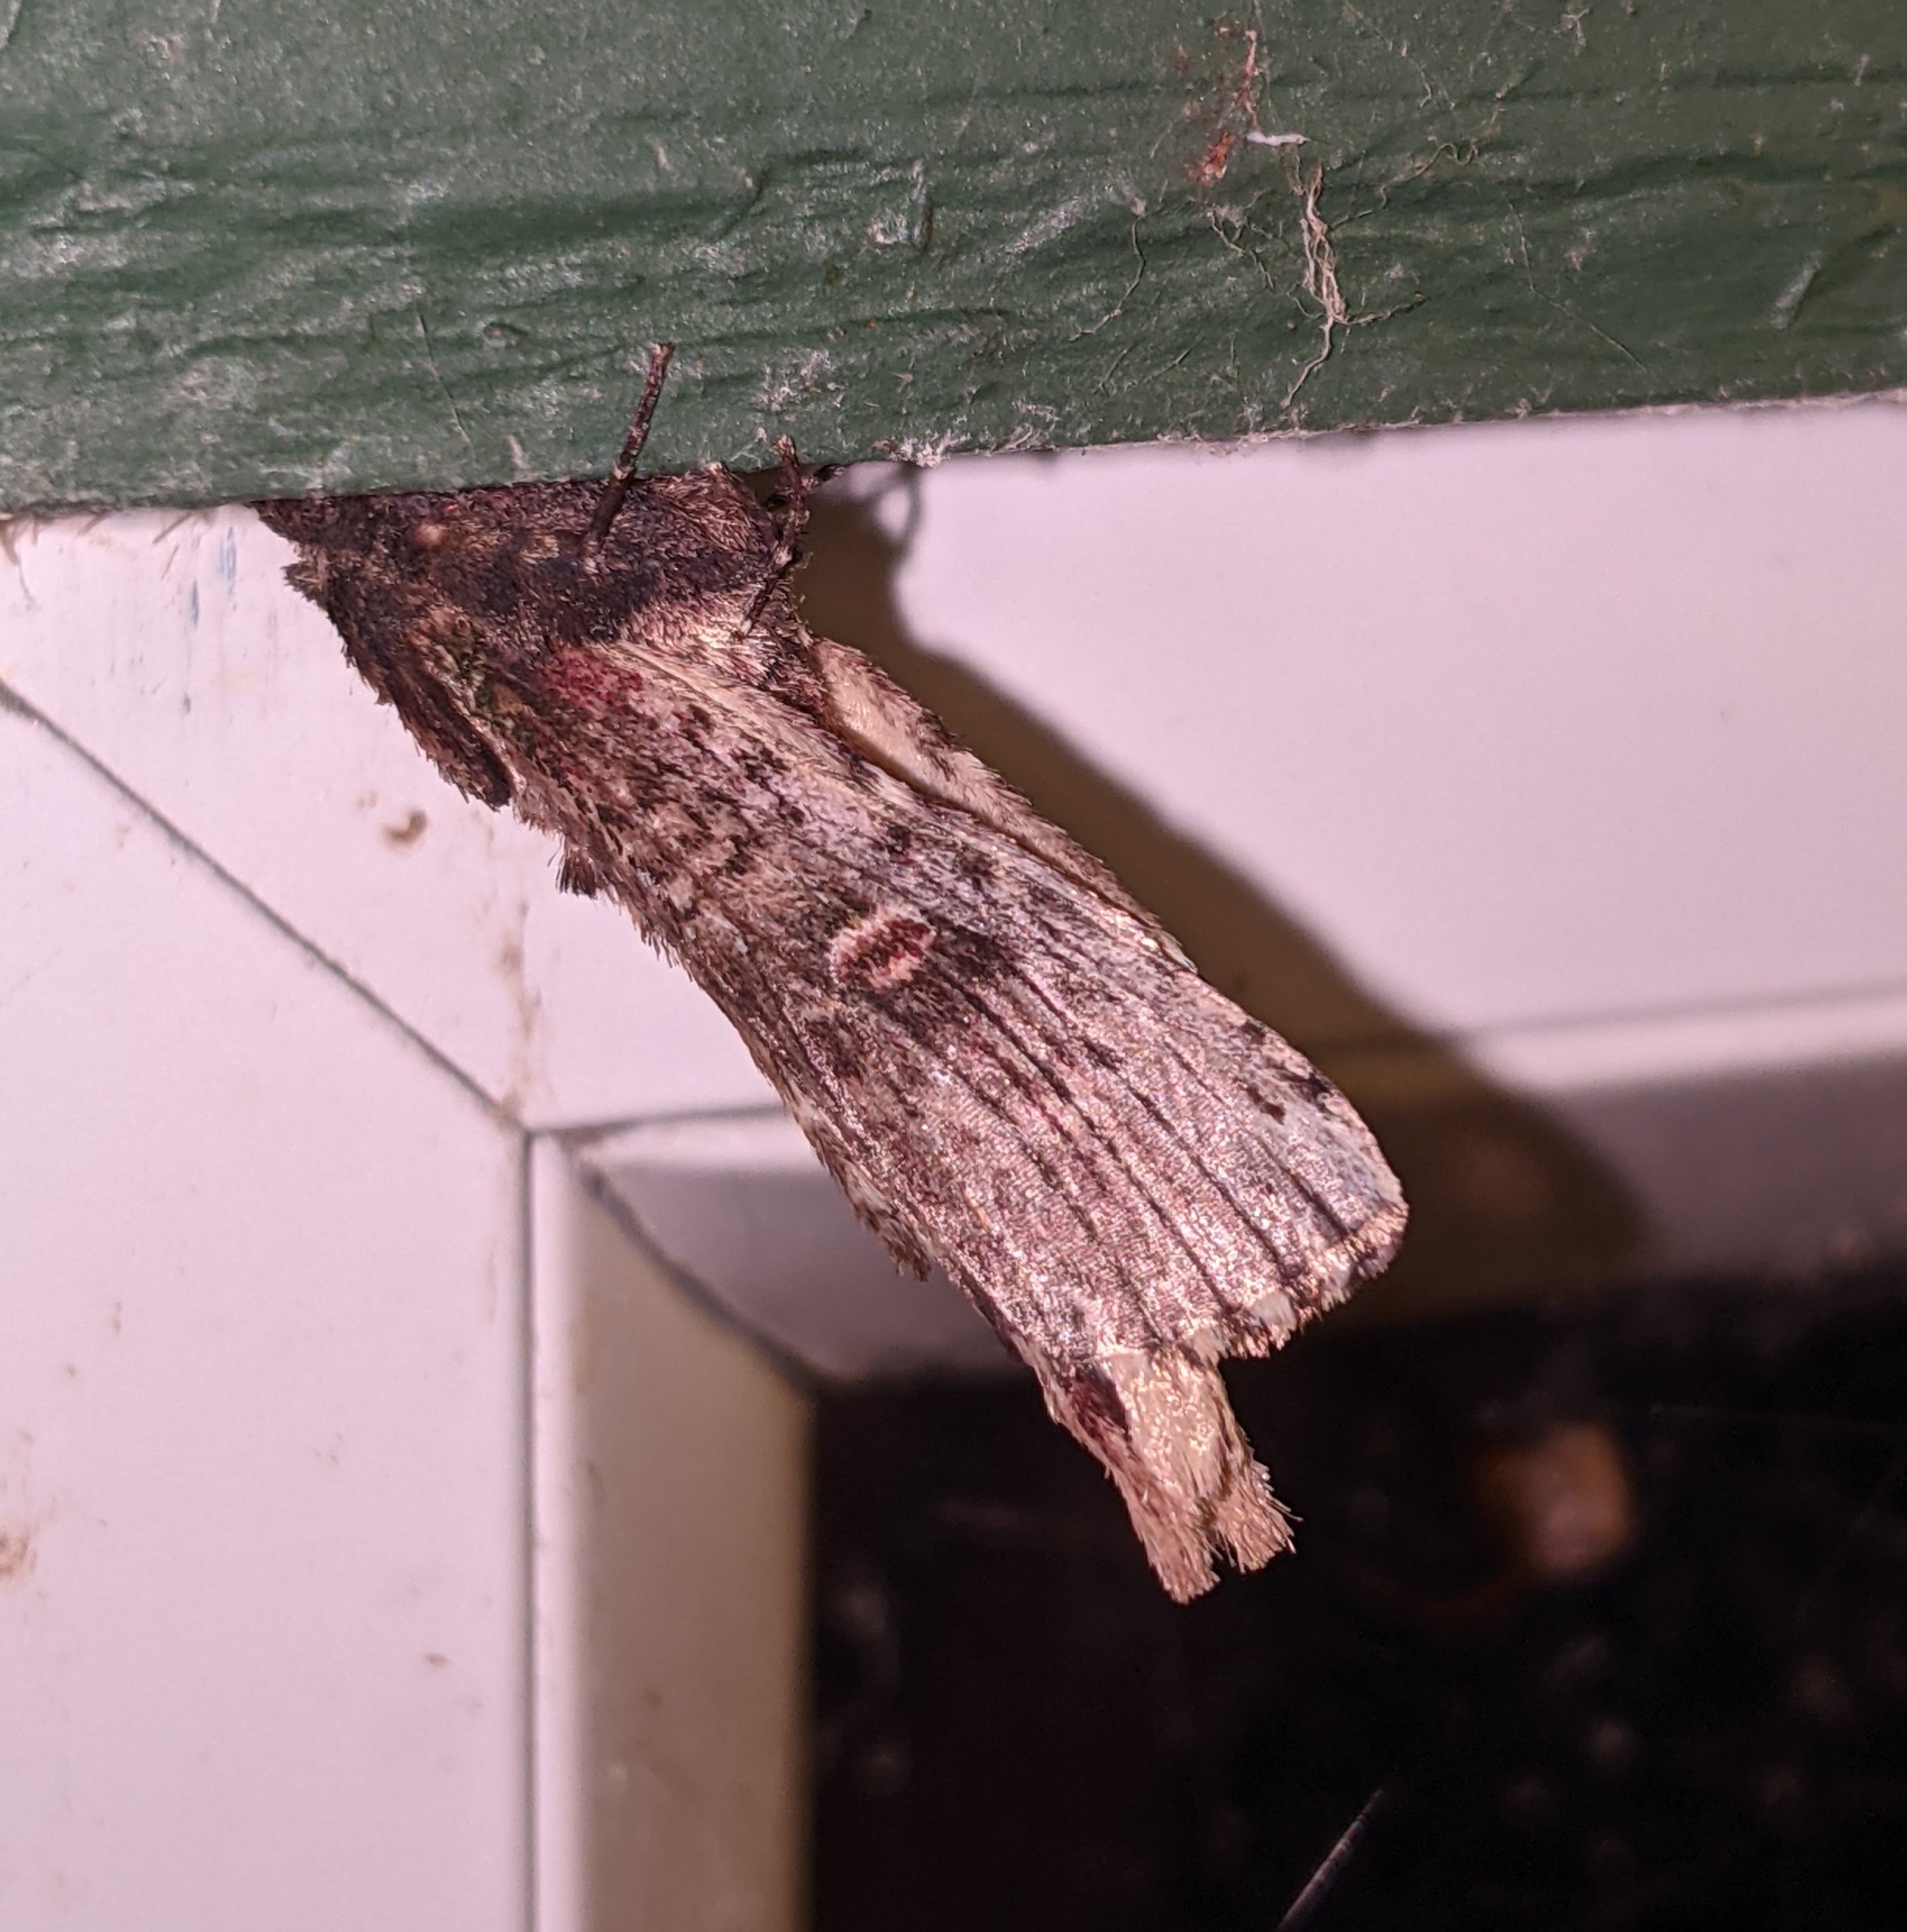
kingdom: Animalia
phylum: Arthropoda
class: Insecta
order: Lepidoptera
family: Notodontidae
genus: Schizura
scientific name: Schizura ipomaeae
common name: Morning-glory prominent
